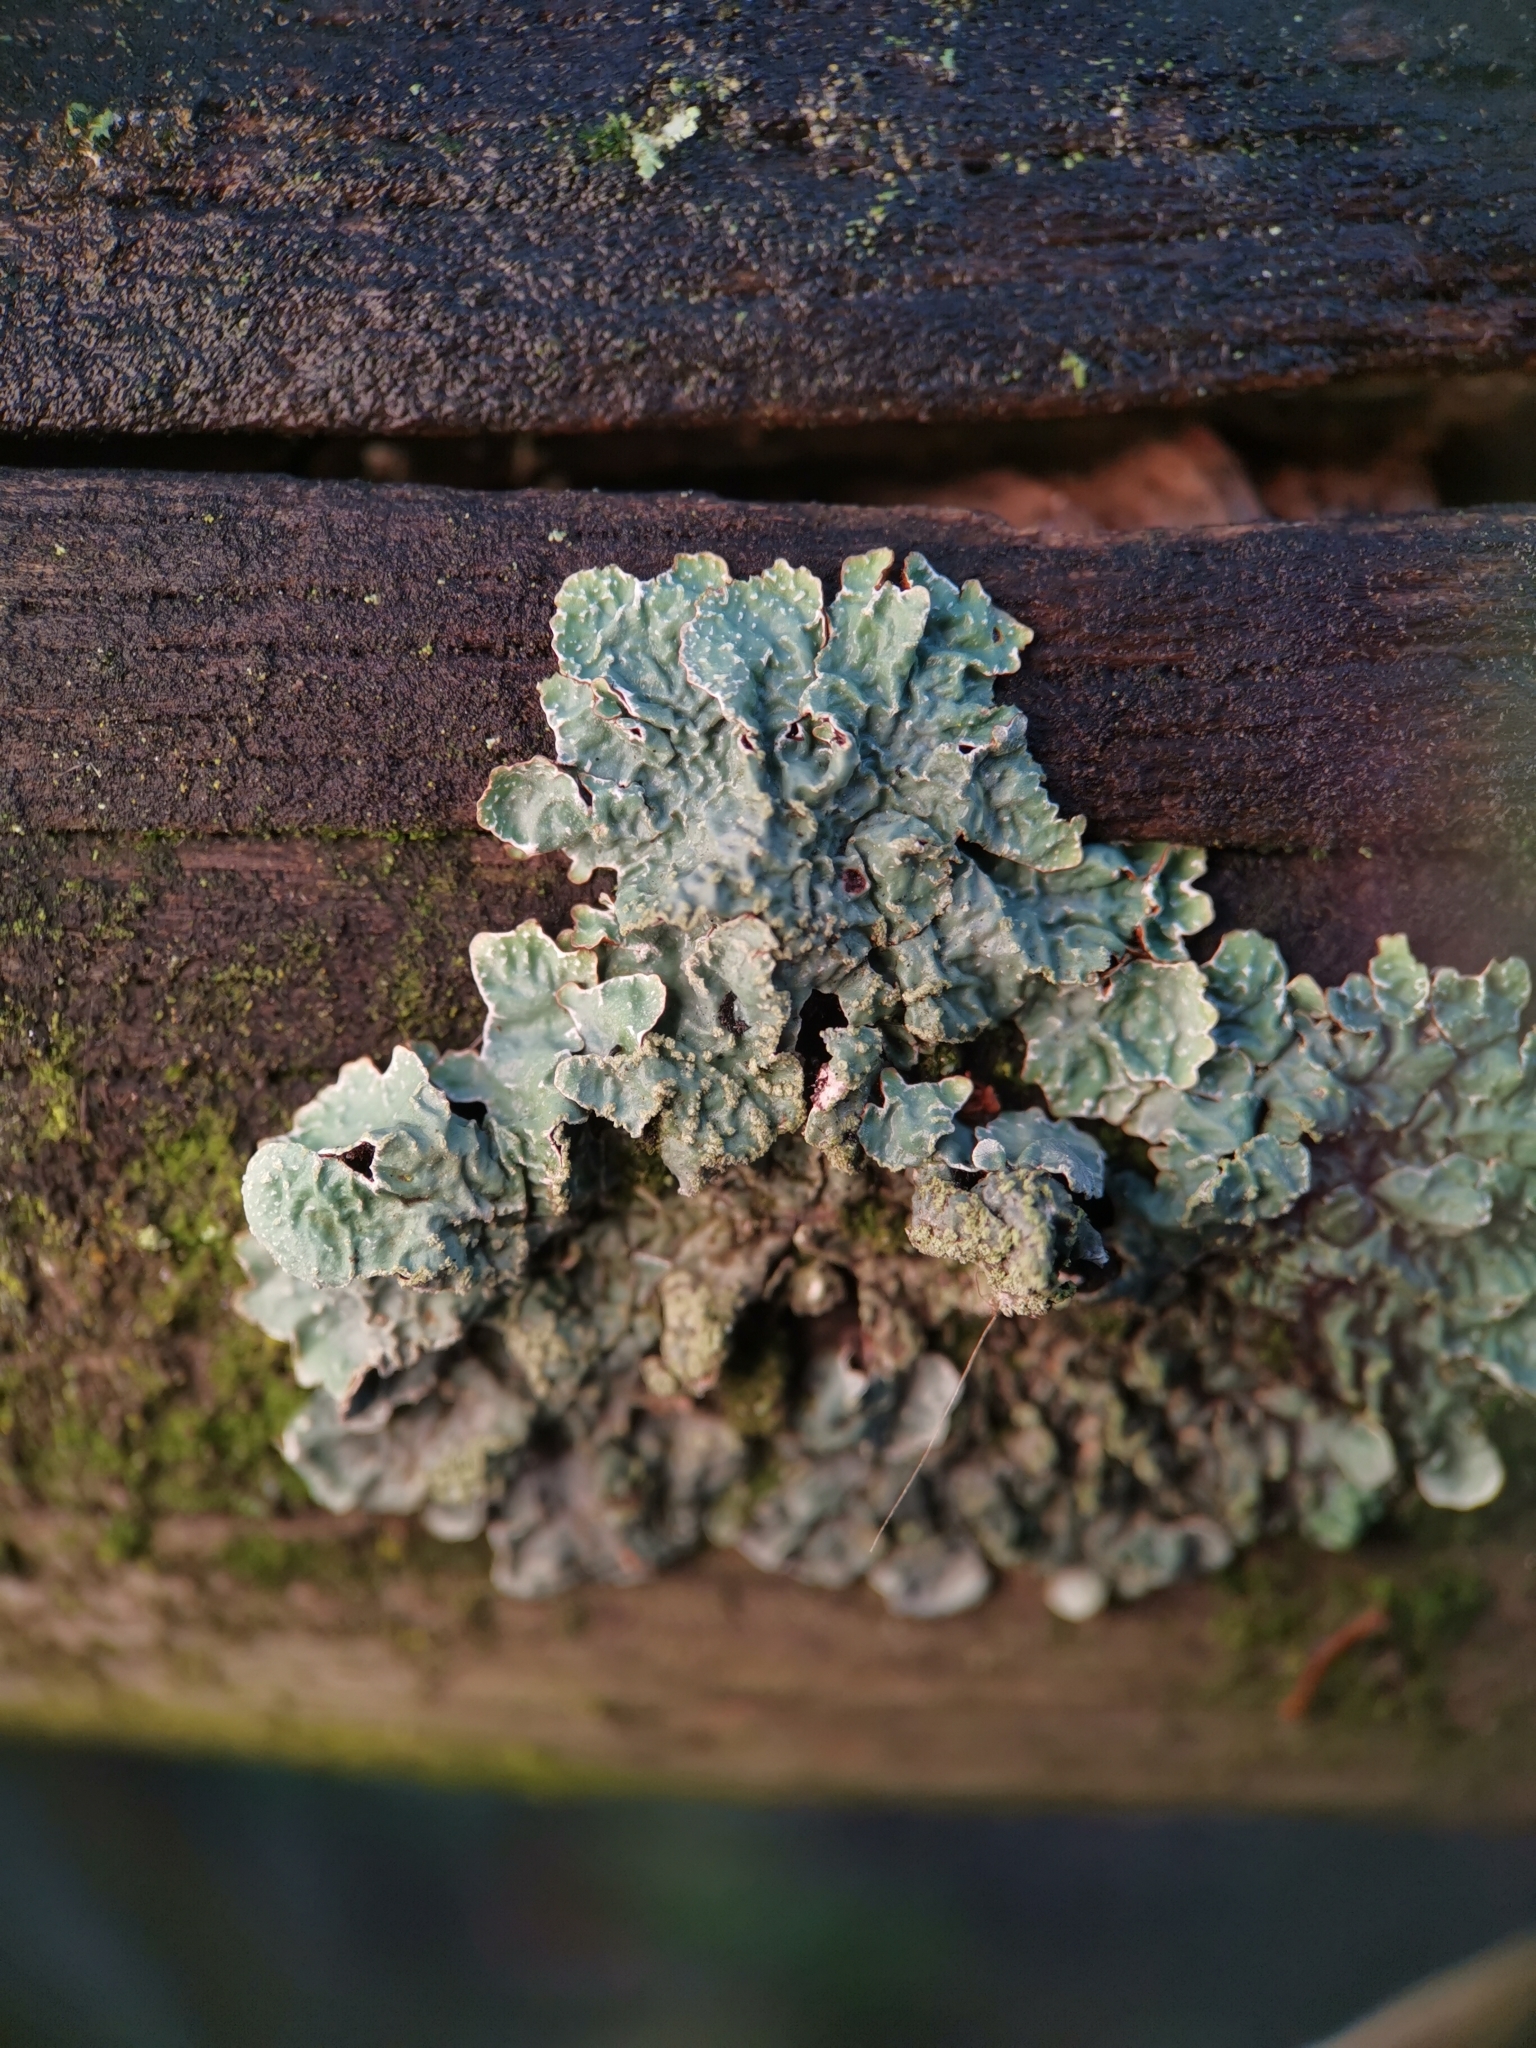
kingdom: Fungi
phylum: Ascomycota
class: Lecanoromycetes
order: Lecanorales
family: Parmeliaceae
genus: Parmelia
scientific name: Parmelia sulcata
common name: Netted shield lichen
